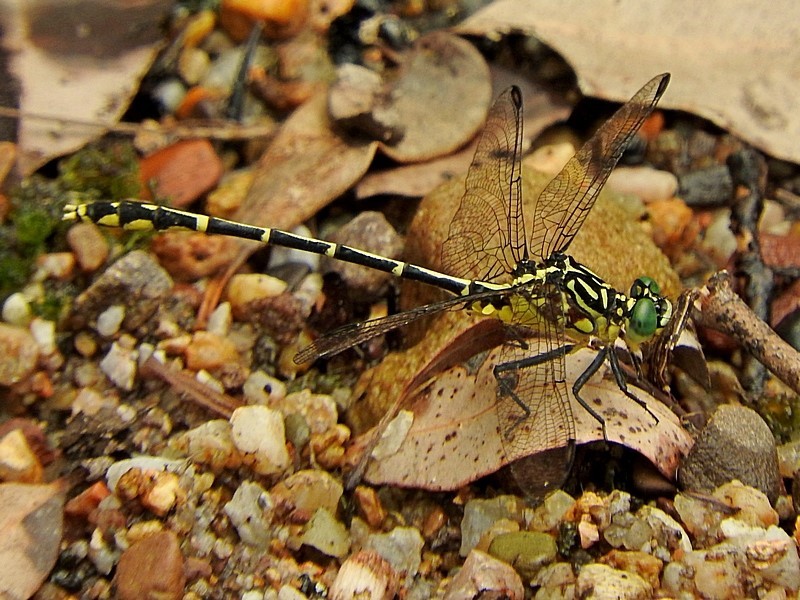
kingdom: Animalia
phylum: Arthropoda
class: Insecta
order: Odonata
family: Gomphidae
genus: Austrogomphus
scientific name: Austrogomphus ochraceus
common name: Jade hunter
